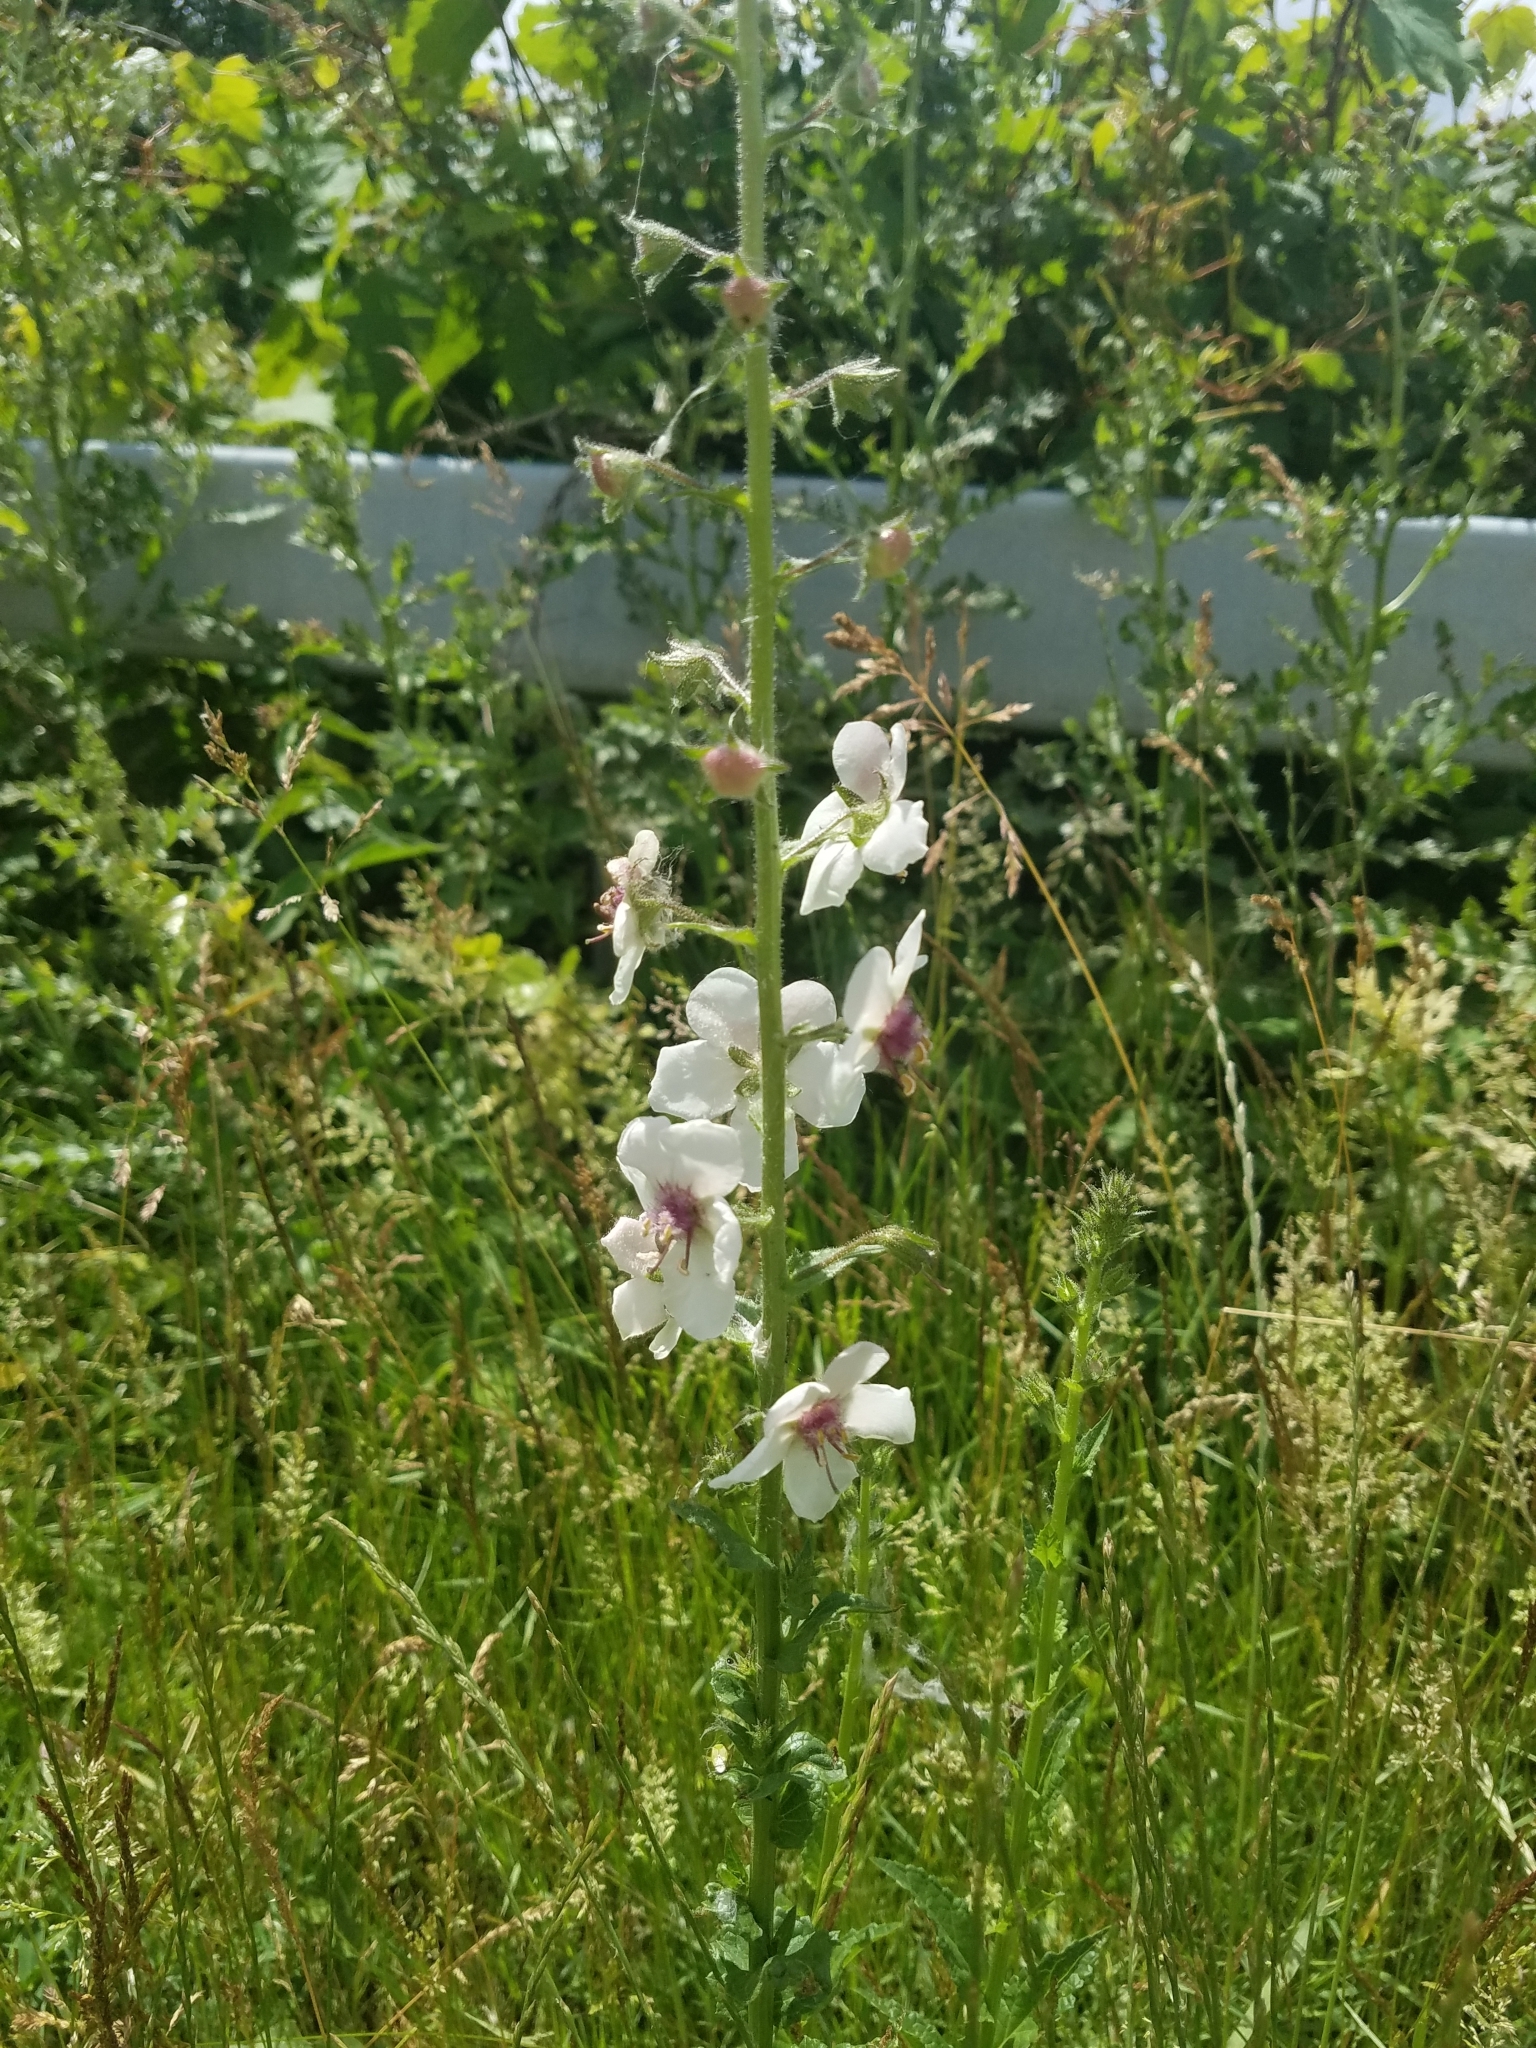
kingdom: Plantae
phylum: Tracheophyta
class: Magnoliopsida
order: Lamiales
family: Scrophulariaceae
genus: Verbascum
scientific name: Verbascum blattaria
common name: Moth mullein
